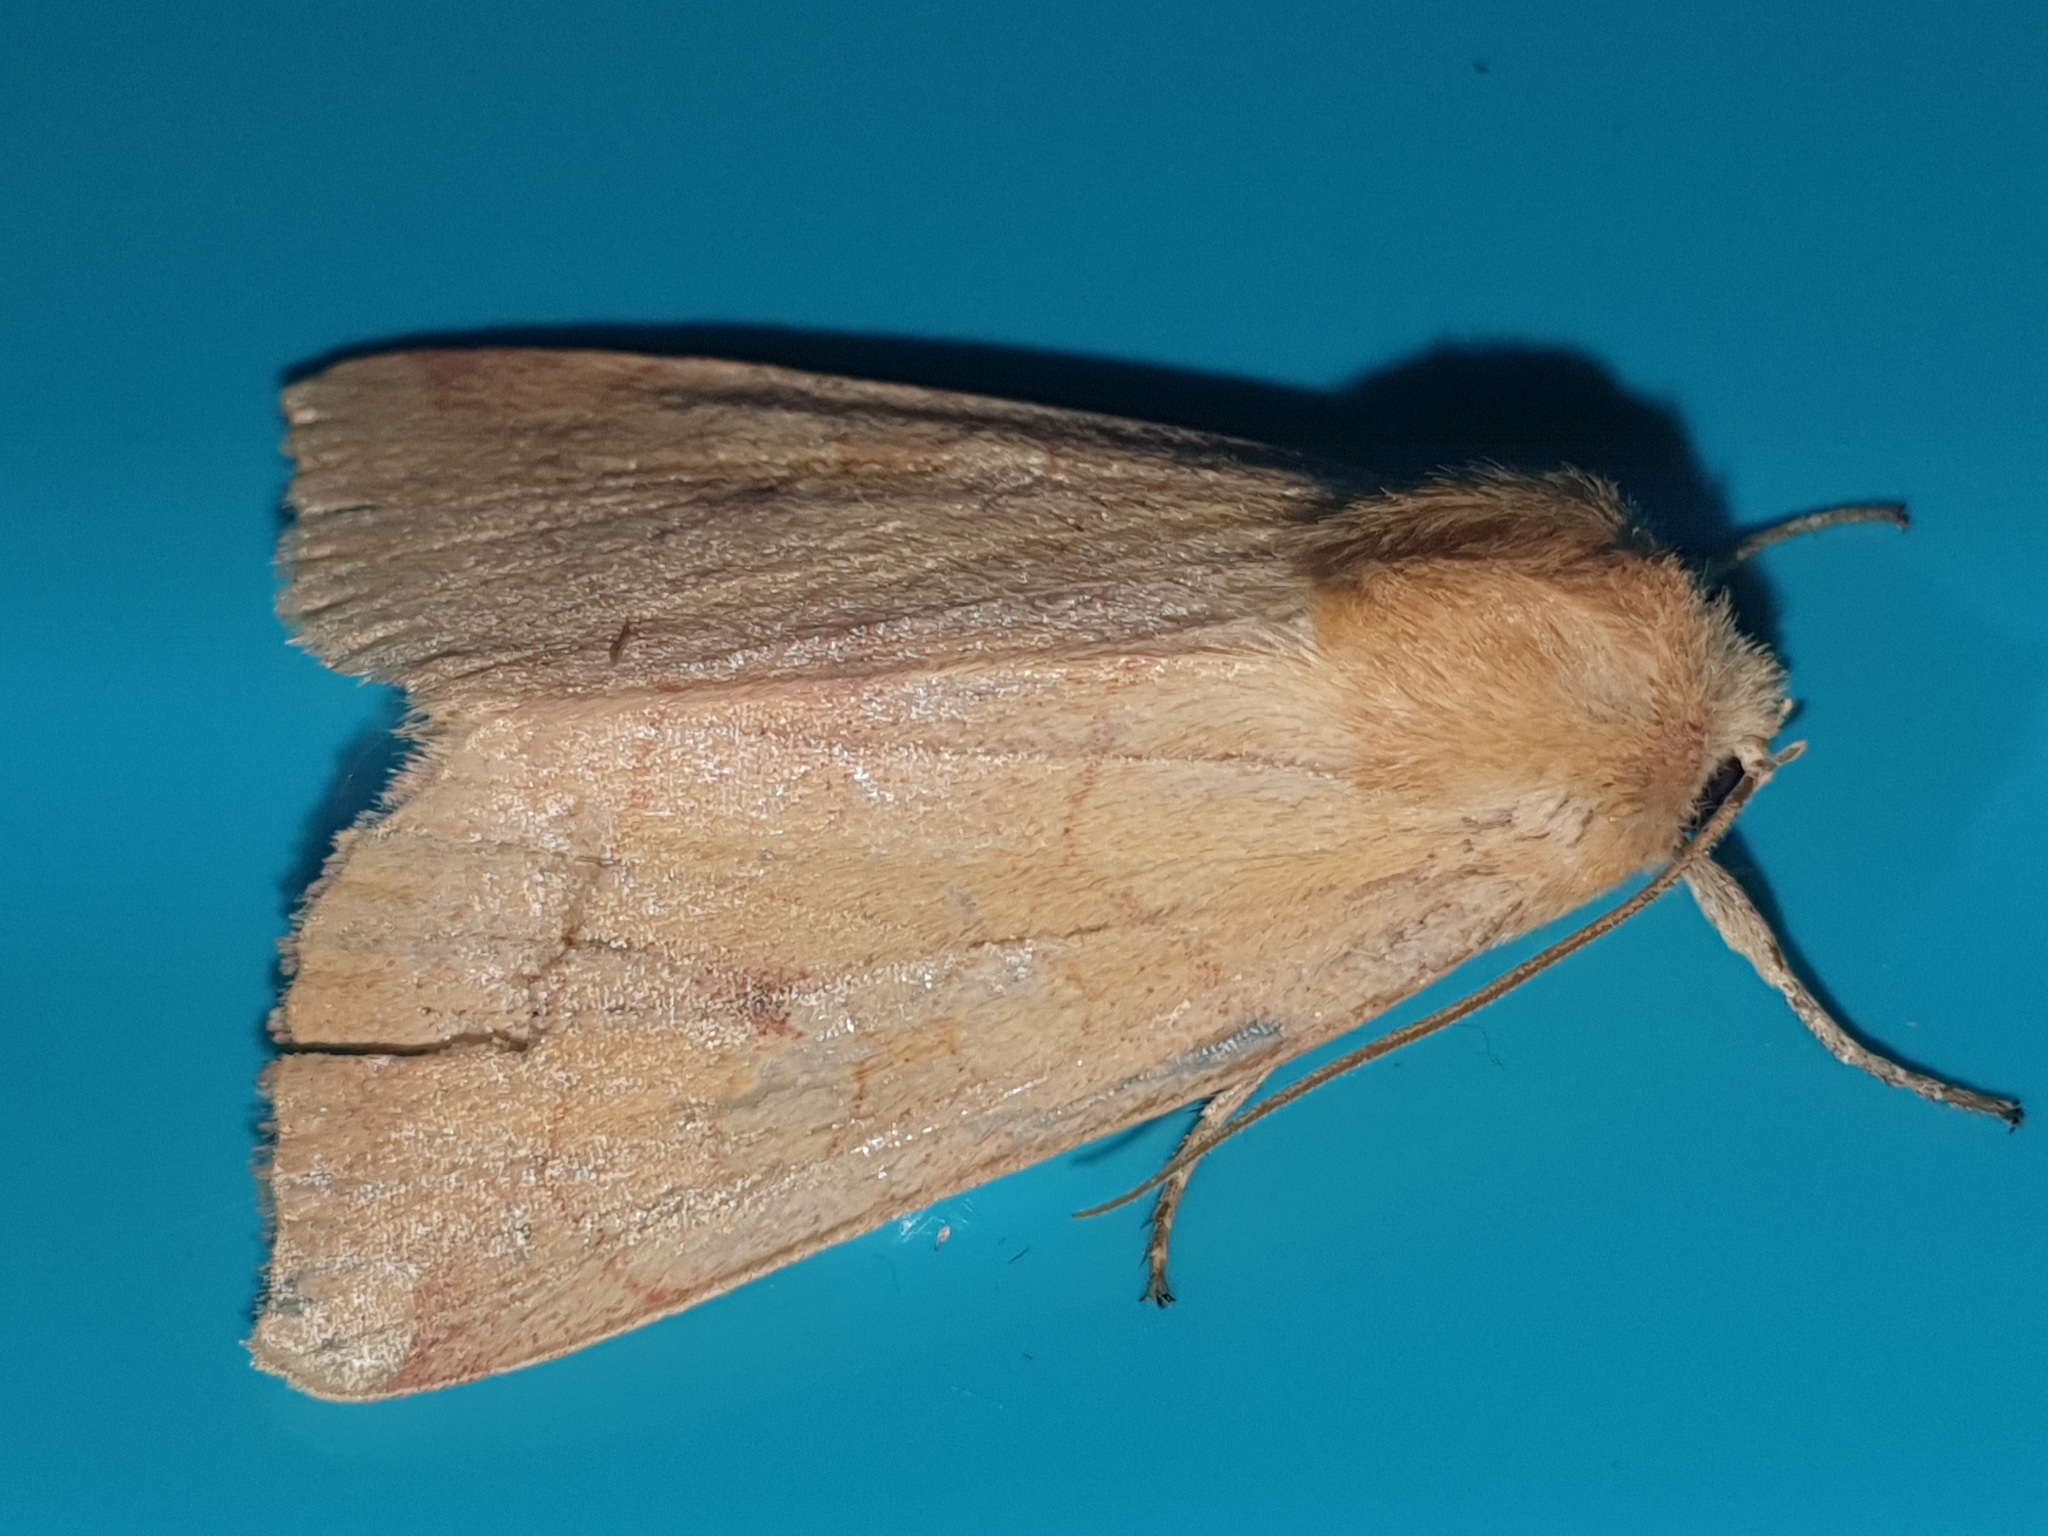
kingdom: Animalia
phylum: Arthropoda
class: Insecta
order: Lepidoptera
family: Noctuidae
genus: Enargia
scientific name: Enargia paleacea
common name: Angle-striped sallow
